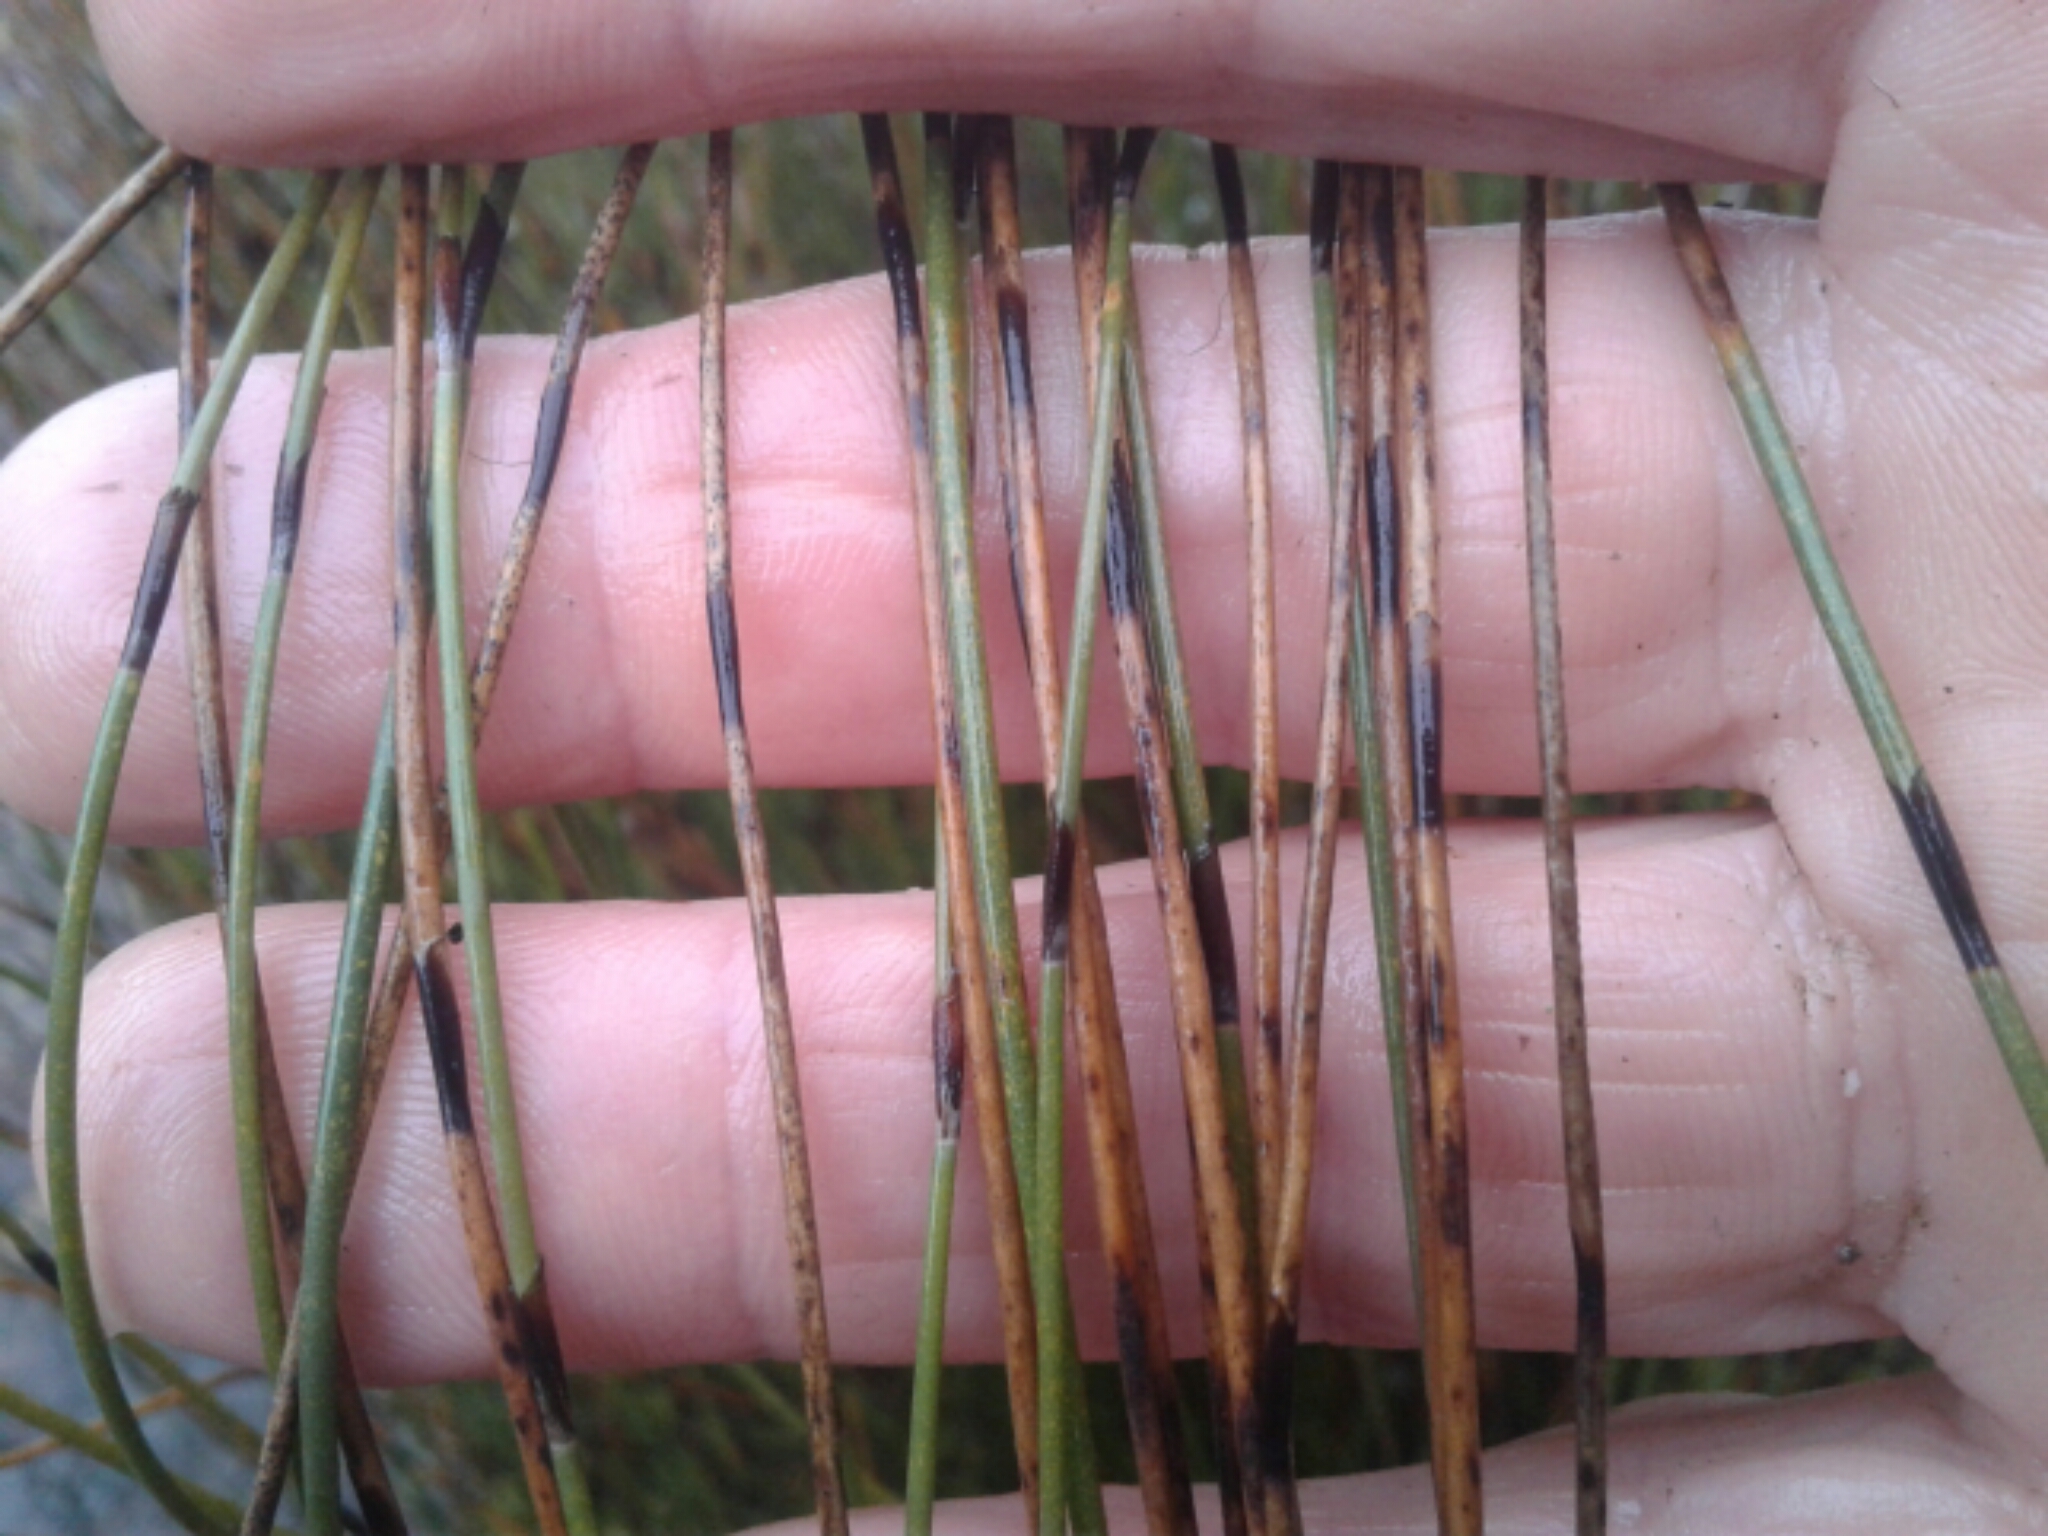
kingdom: Plantae
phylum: Tracheophyta
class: Liliopsida
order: Poales
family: Restionaceae
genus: Apodasmia
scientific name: Apodasmia similis
